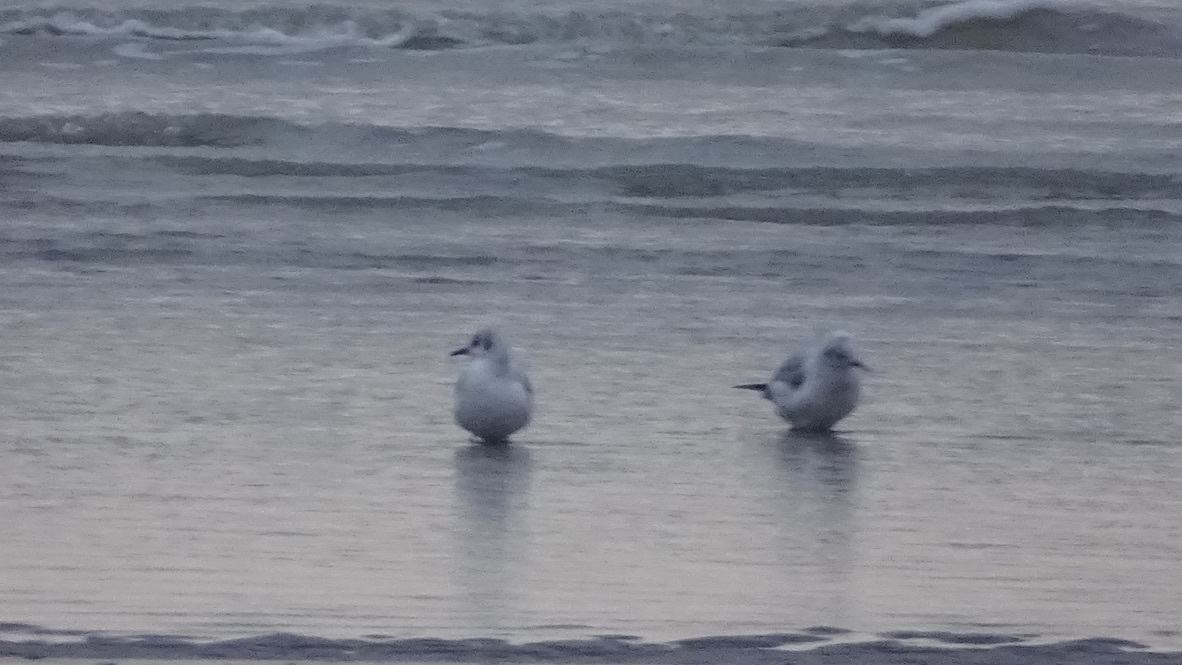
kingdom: Animalia
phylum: Chordata
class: Aves
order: Charadriiformes
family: Laridae
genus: Chroicocephalus
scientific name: Chroicocephalus ridibundus
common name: Black-headed gull
